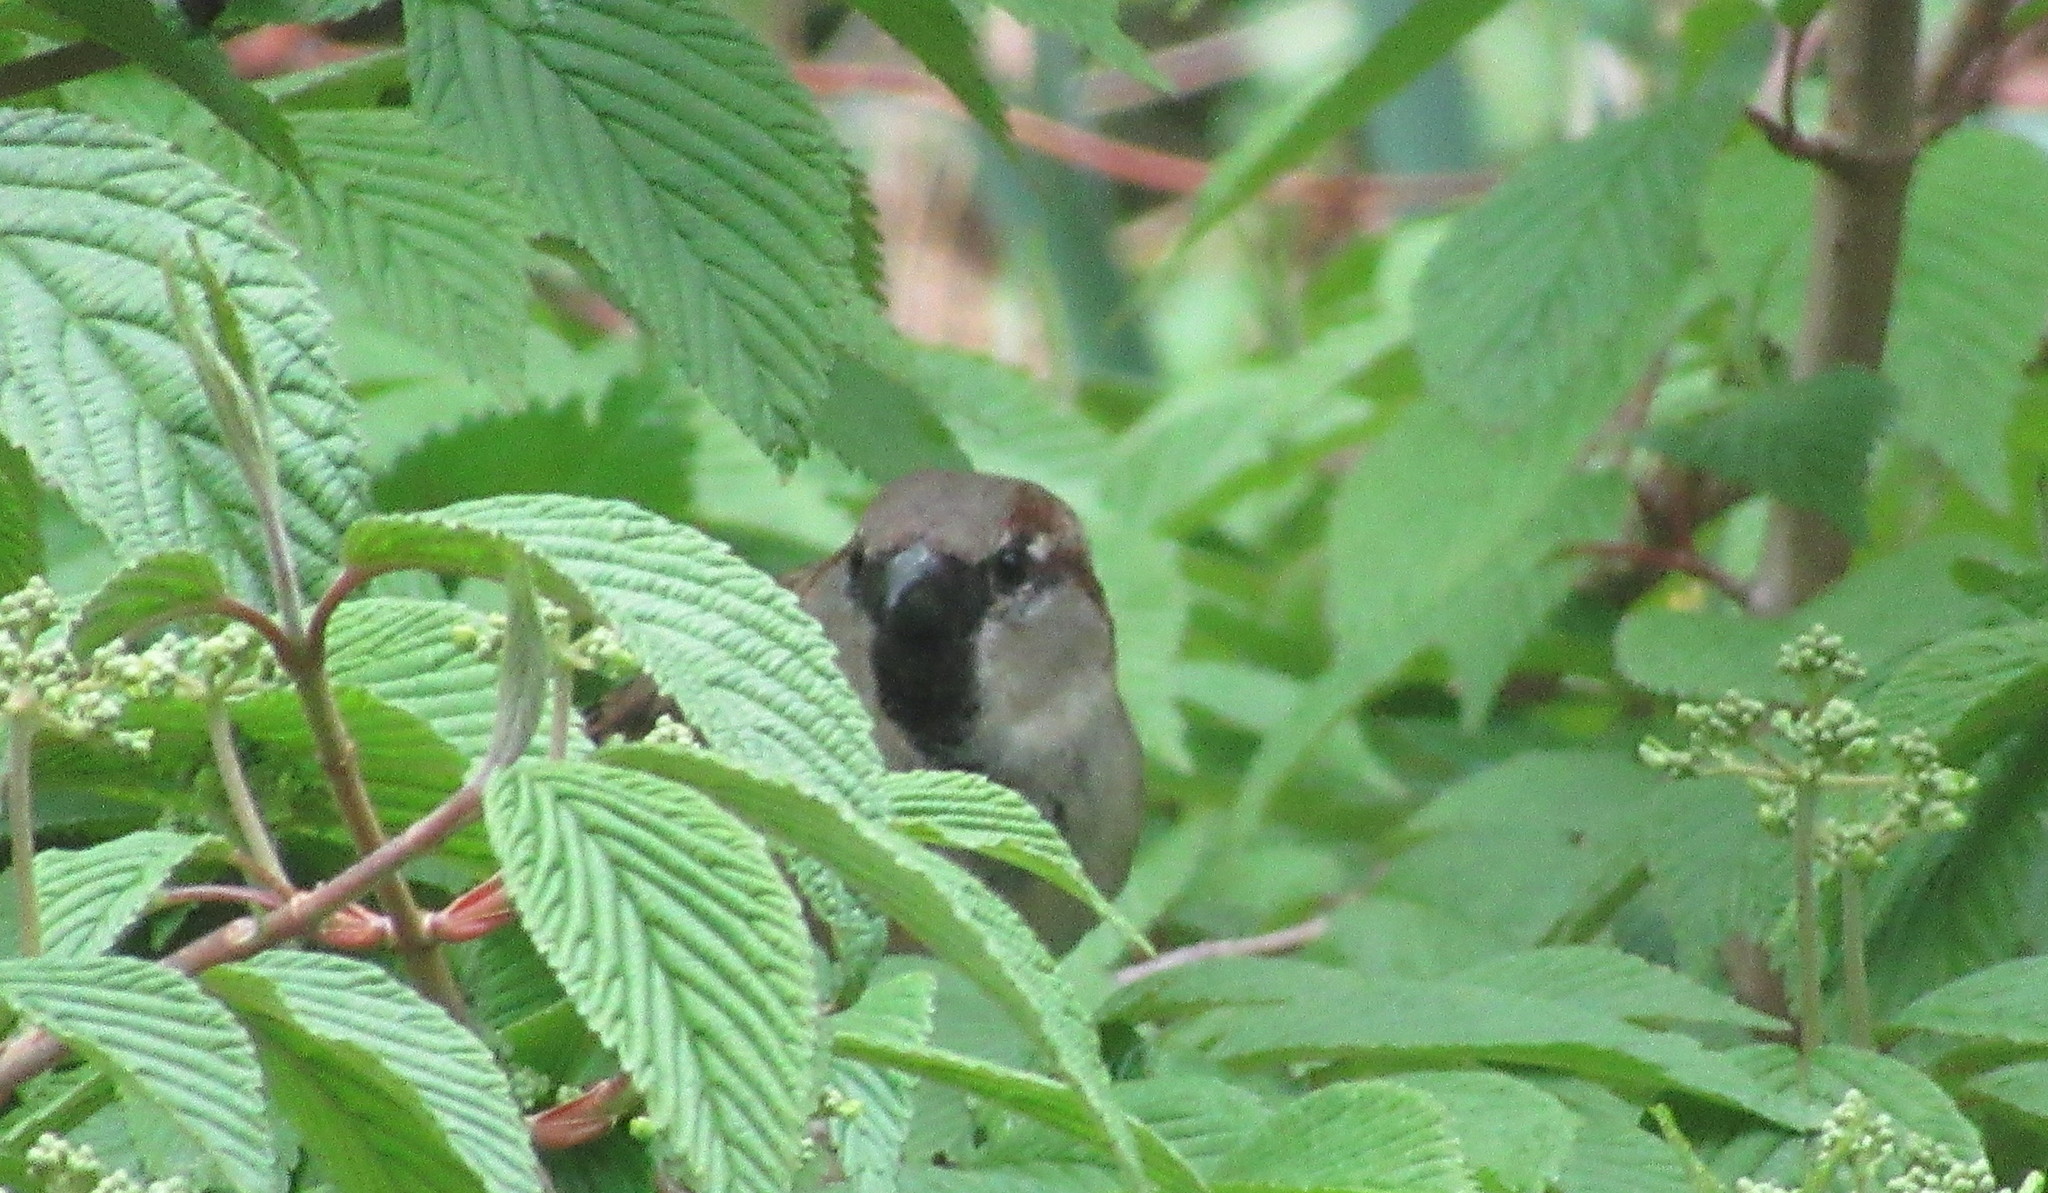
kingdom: Animalia
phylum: Chordata
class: Aves
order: Passeriformes
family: Passeridae
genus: Passer
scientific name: Passer domesticus
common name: House sparrow
